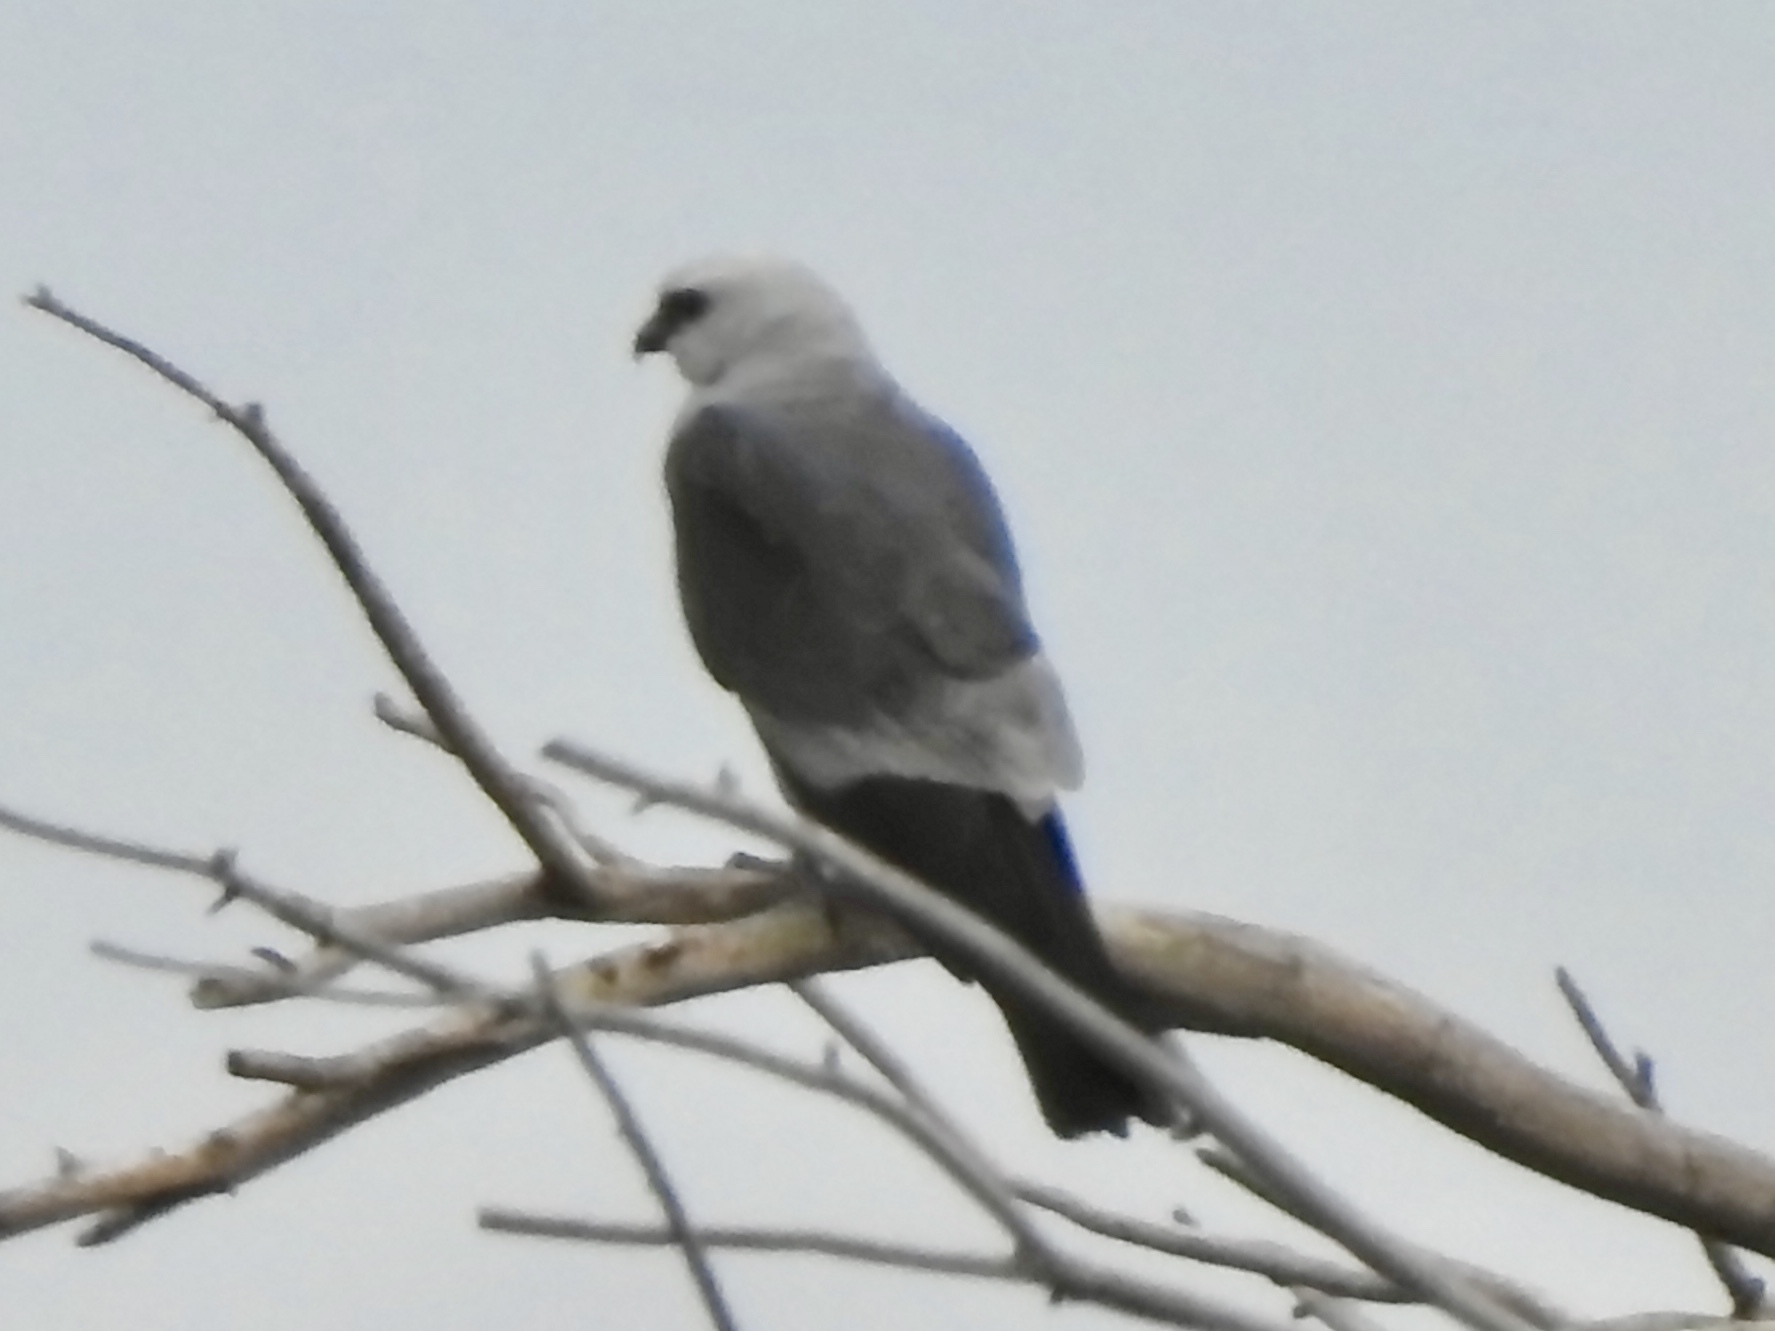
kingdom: Animalia
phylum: Chordata
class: Aves
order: Accipitriformes
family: Accipitridae
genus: Ictinia
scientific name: Ictinia mississippiensis
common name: Mississippi kite
